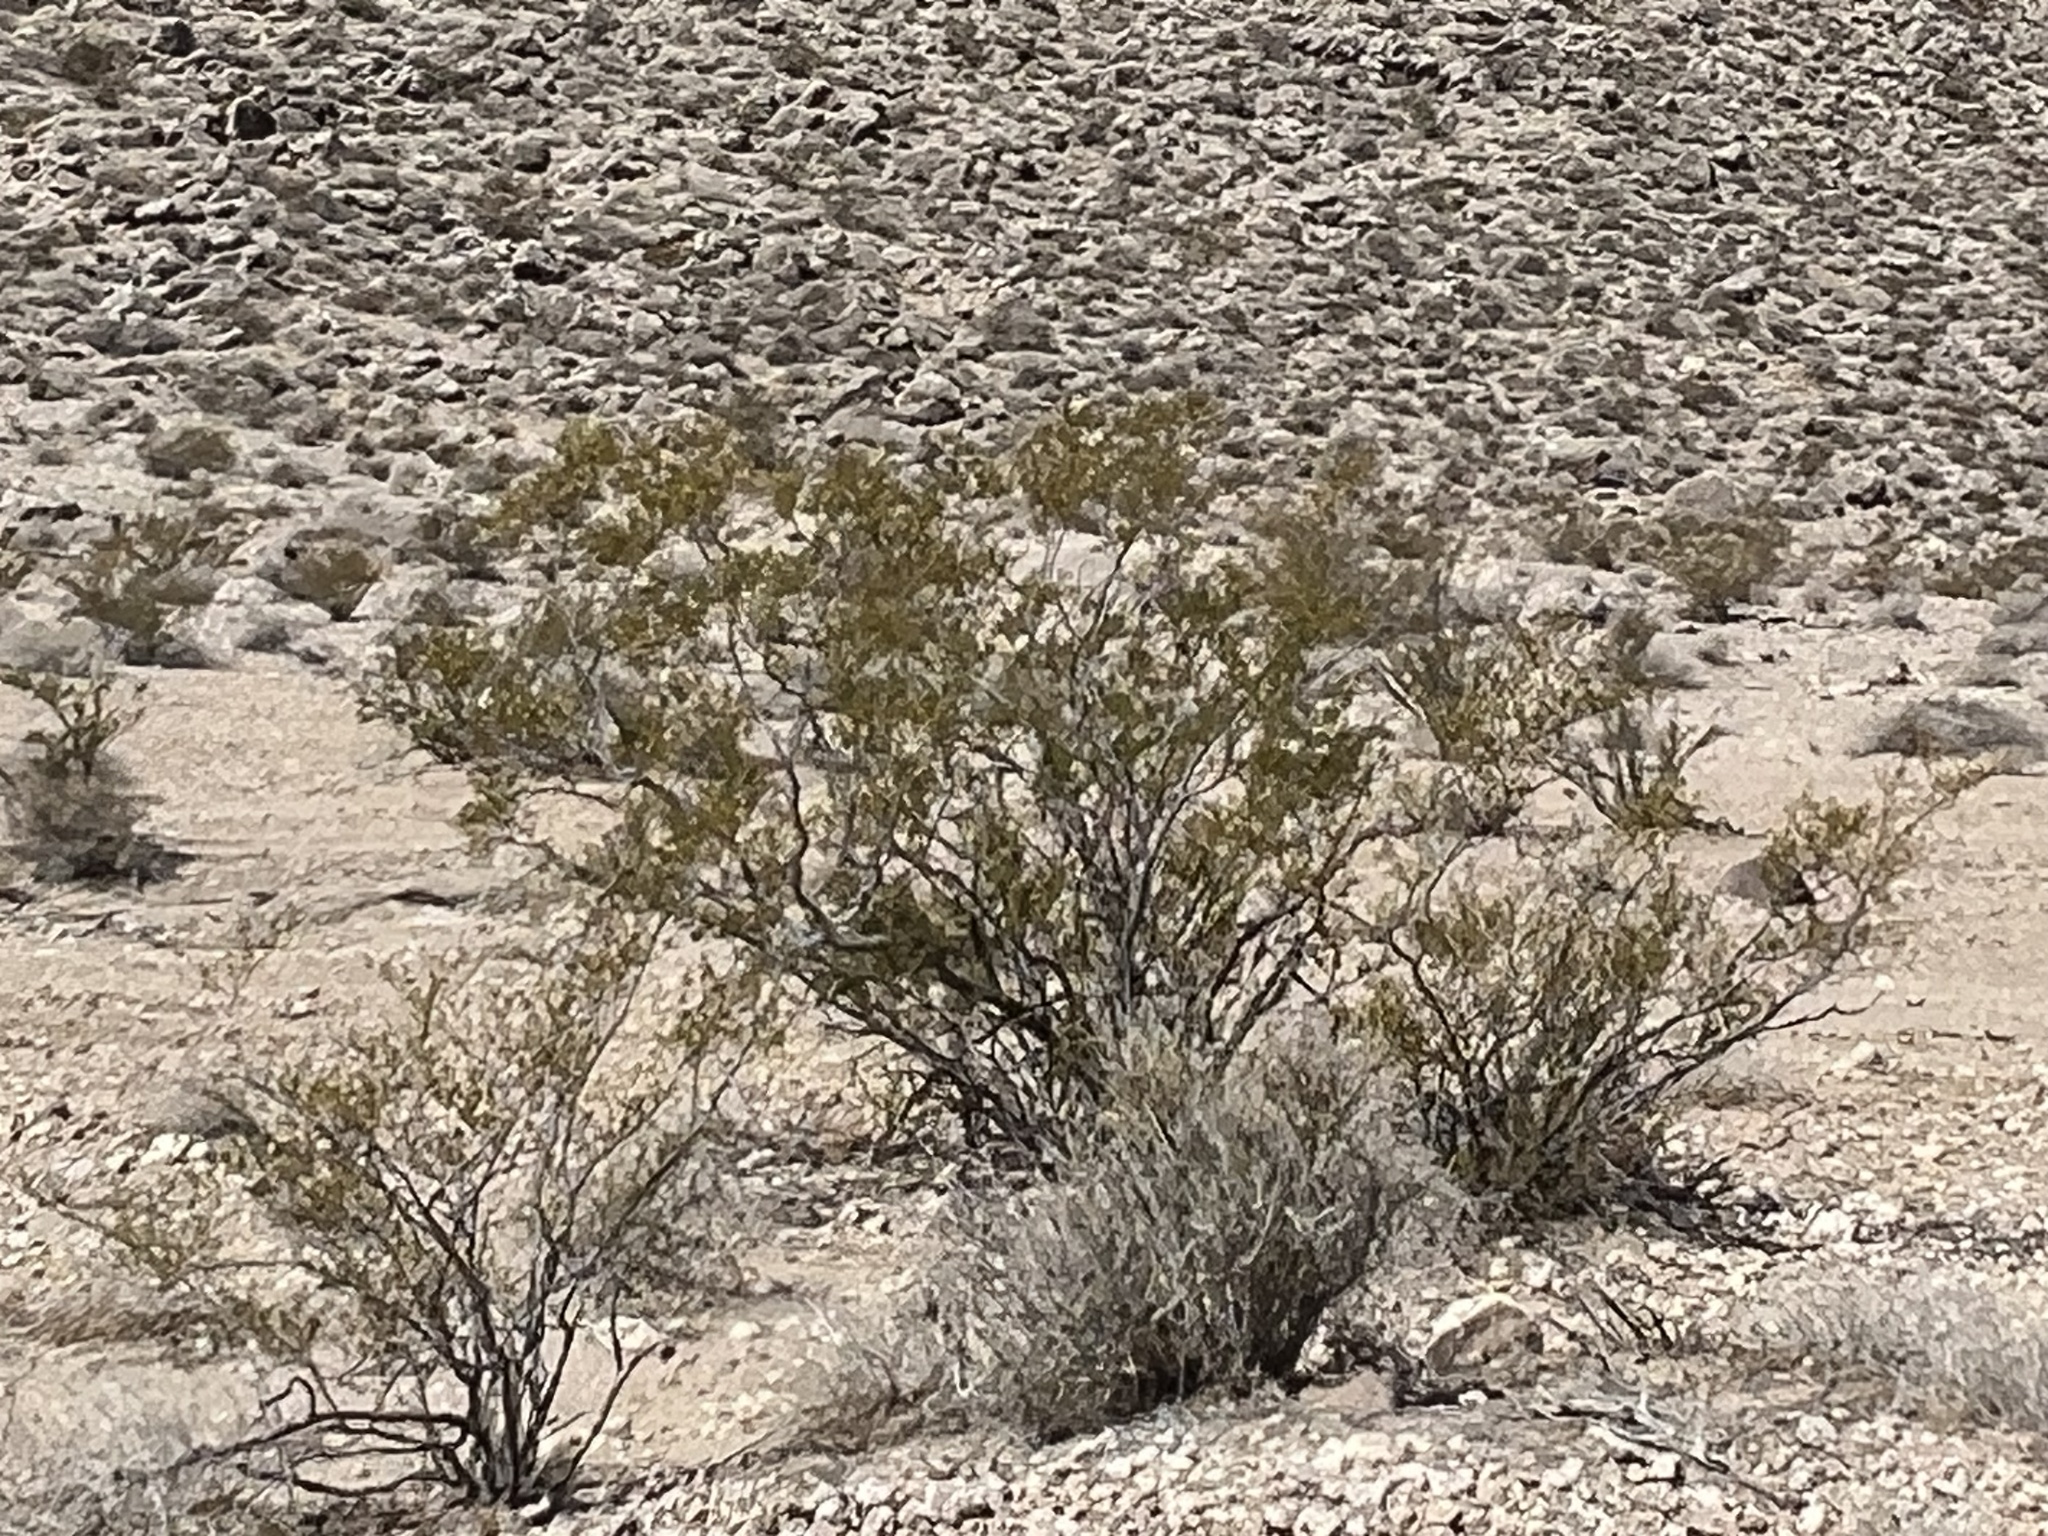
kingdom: Plantae
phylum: Tracheophyta
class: Magnoliopsida
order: Zygophyllales
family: Zygophyllaceae
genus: Larrea
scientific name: Larrea tridentata
